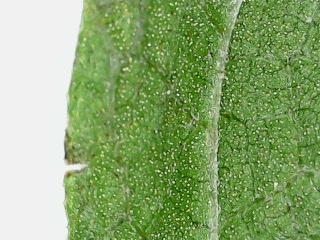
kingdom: Plantae
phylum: Tracheophyta
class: Magnoliopsida
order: Asterales
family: Asteraceae
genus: Eutrochium
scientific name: Eutrochium dubium
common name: Coastal plain joe pye weed
